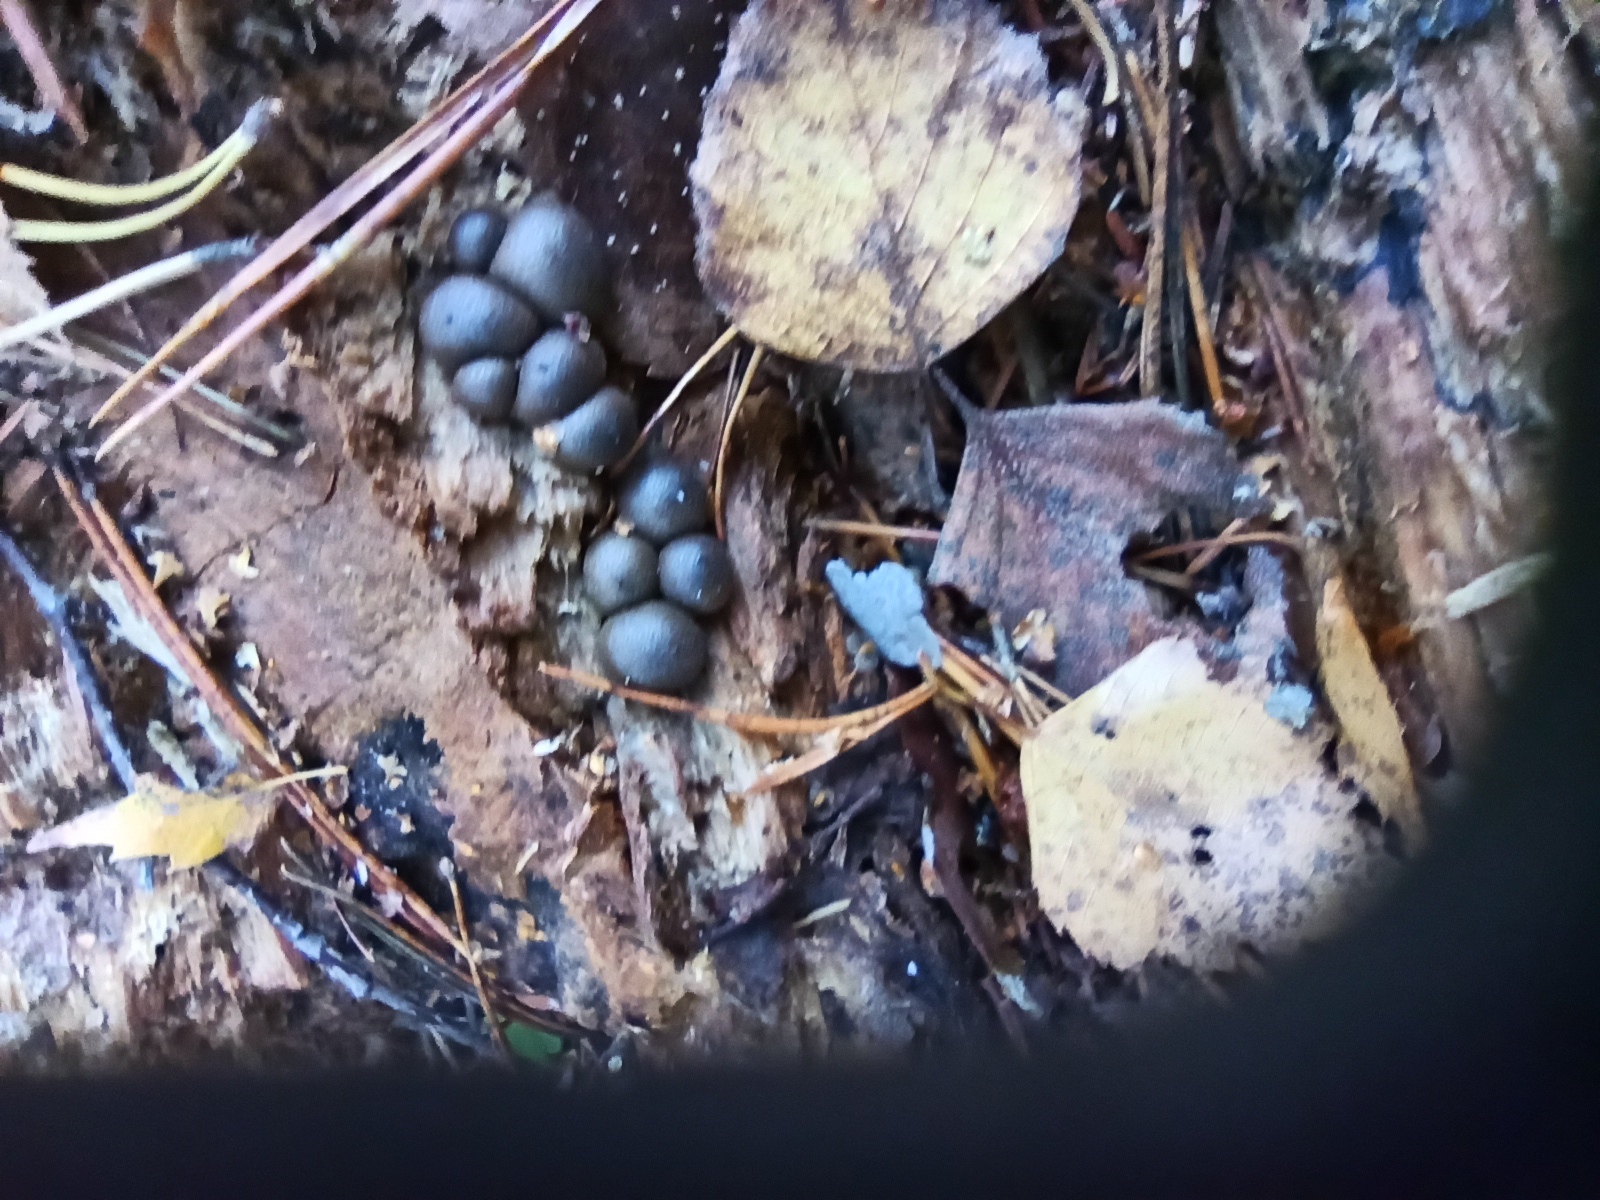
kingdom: Protozoa
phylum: Mycetozoa
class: Myxomycetes
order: Cribrariales
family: Tubiferaceae
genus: Lycogala
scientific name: Lycogala epidendrum
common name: Wolf's milk
